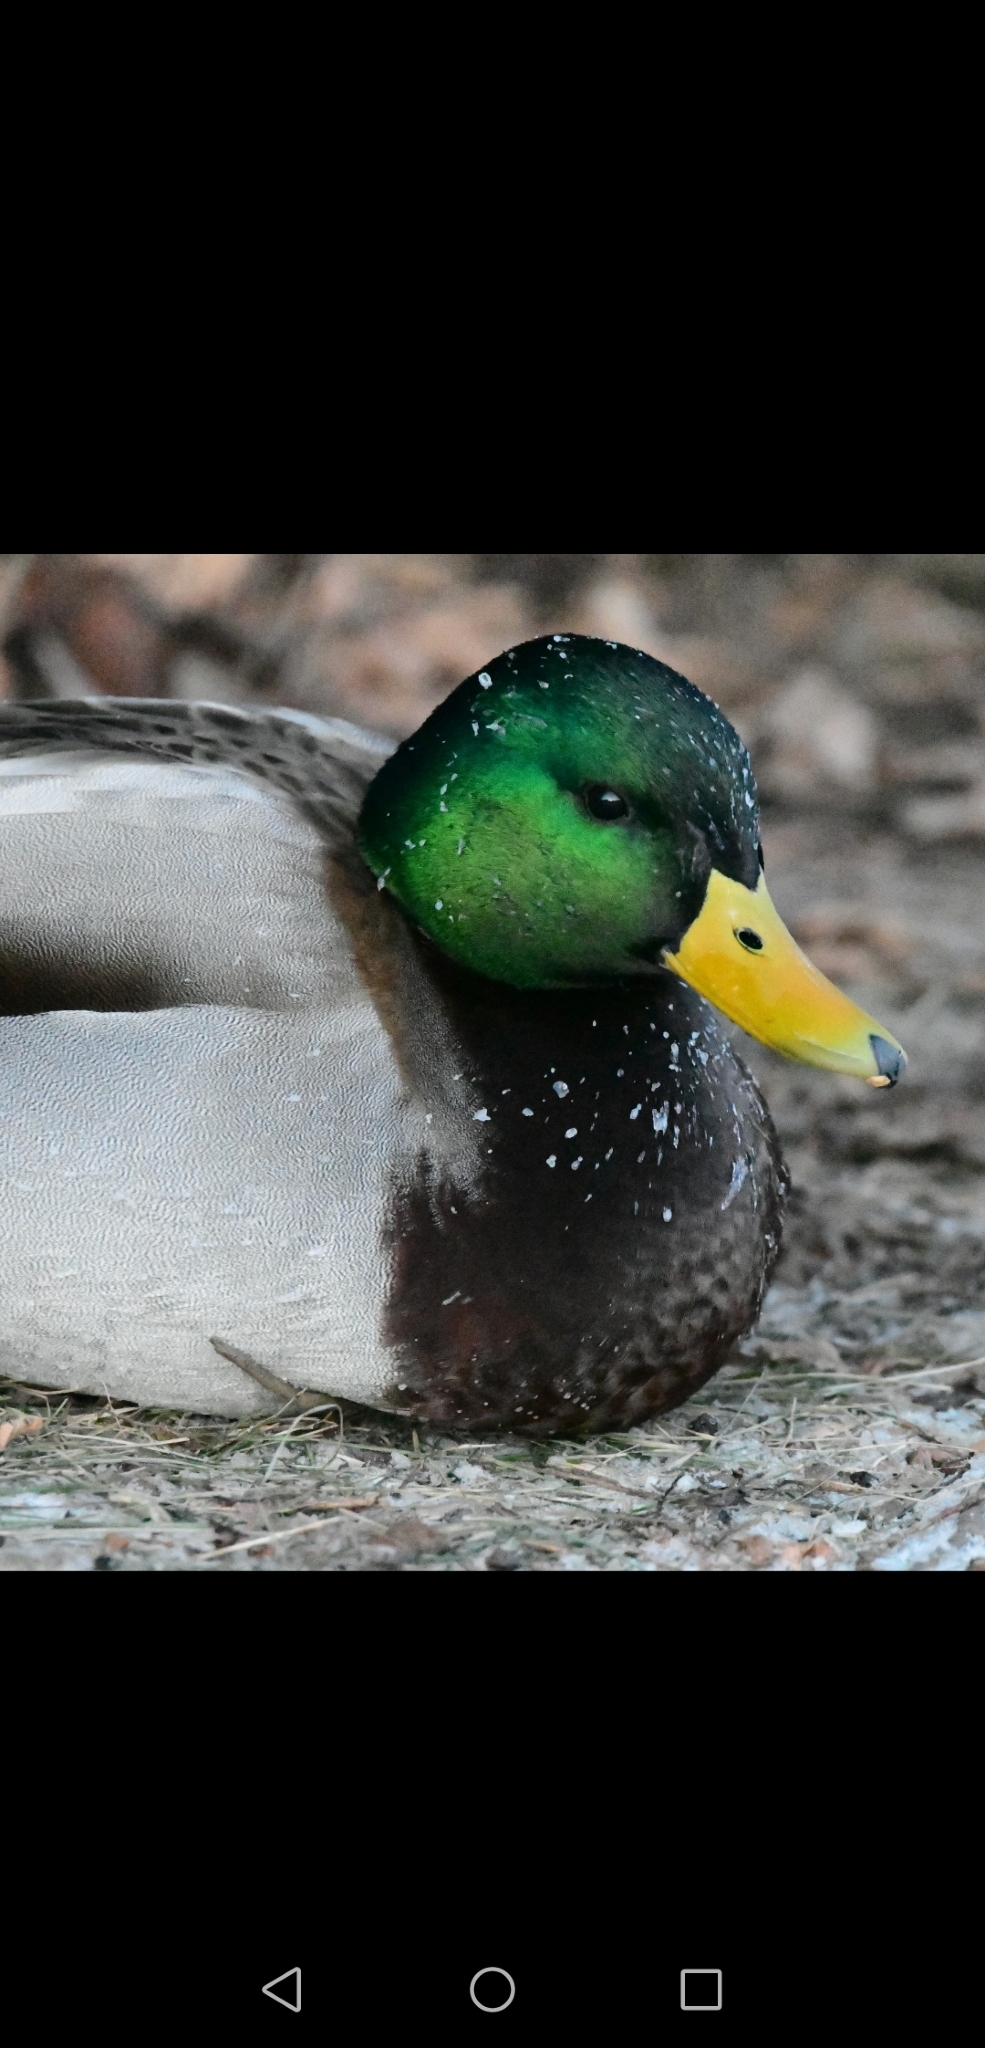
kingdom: Animalia
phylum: Chordata
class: Aves
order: Anseriformes
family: Anatidae
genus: Anas
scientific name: Anas platyrhynchos
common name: Mallard
